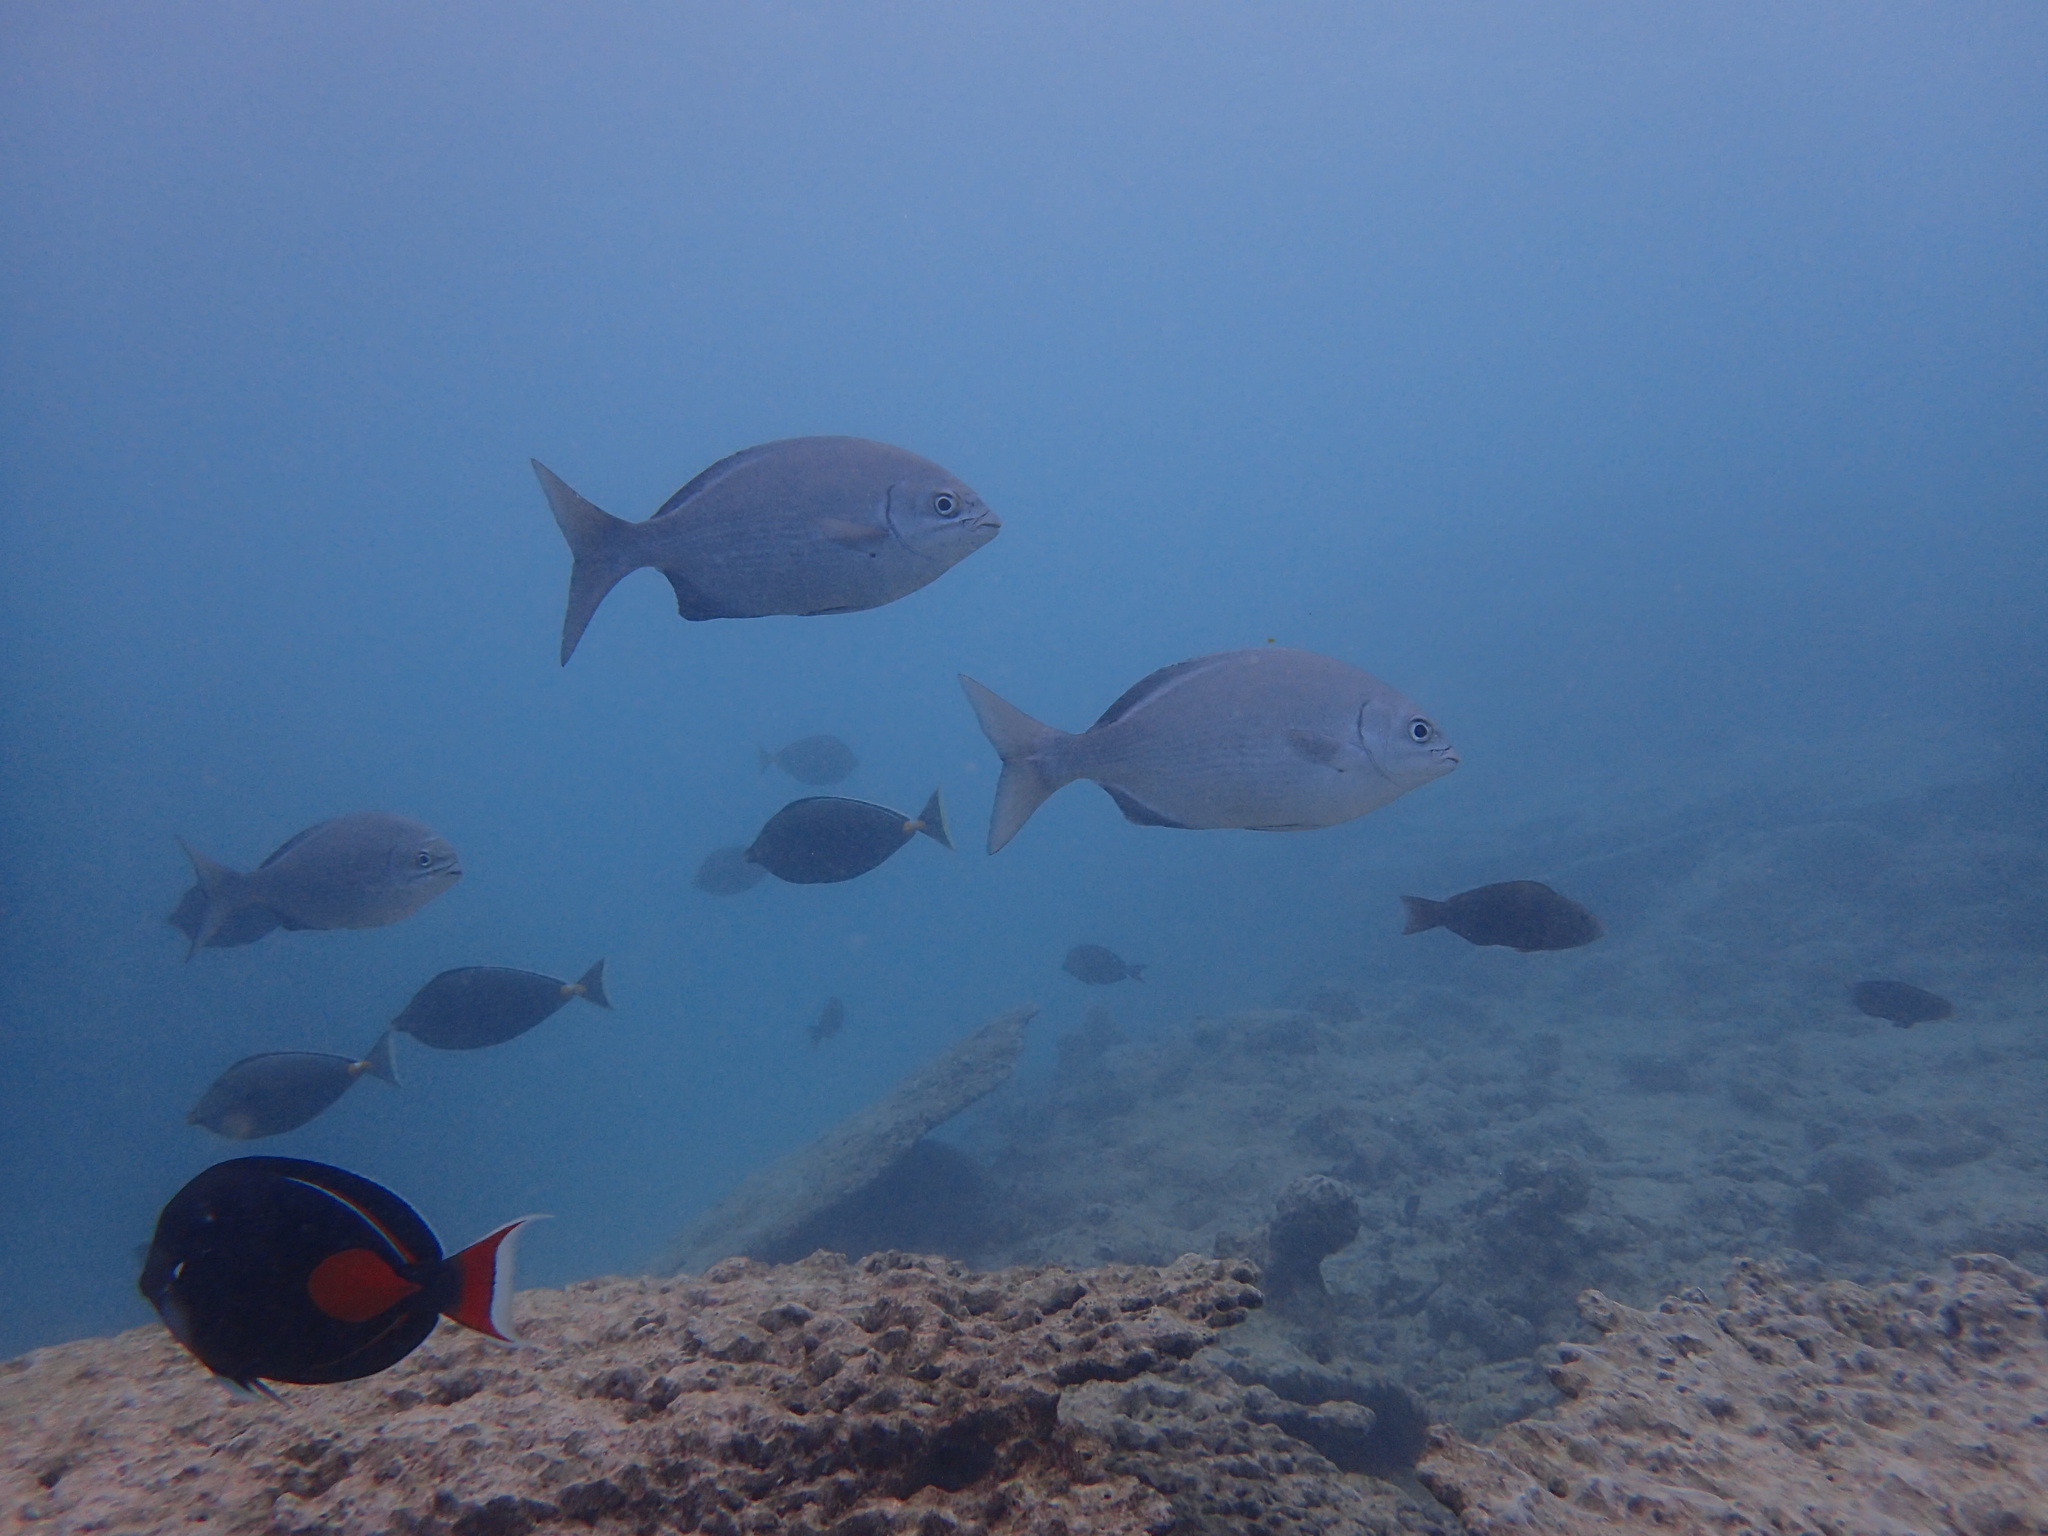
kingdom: Animalia
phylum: Chordata
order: Perciformes
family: Kyphosidae
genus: Kyphosus
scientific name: Kyphosus sectatrix
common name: Bermuda chub
